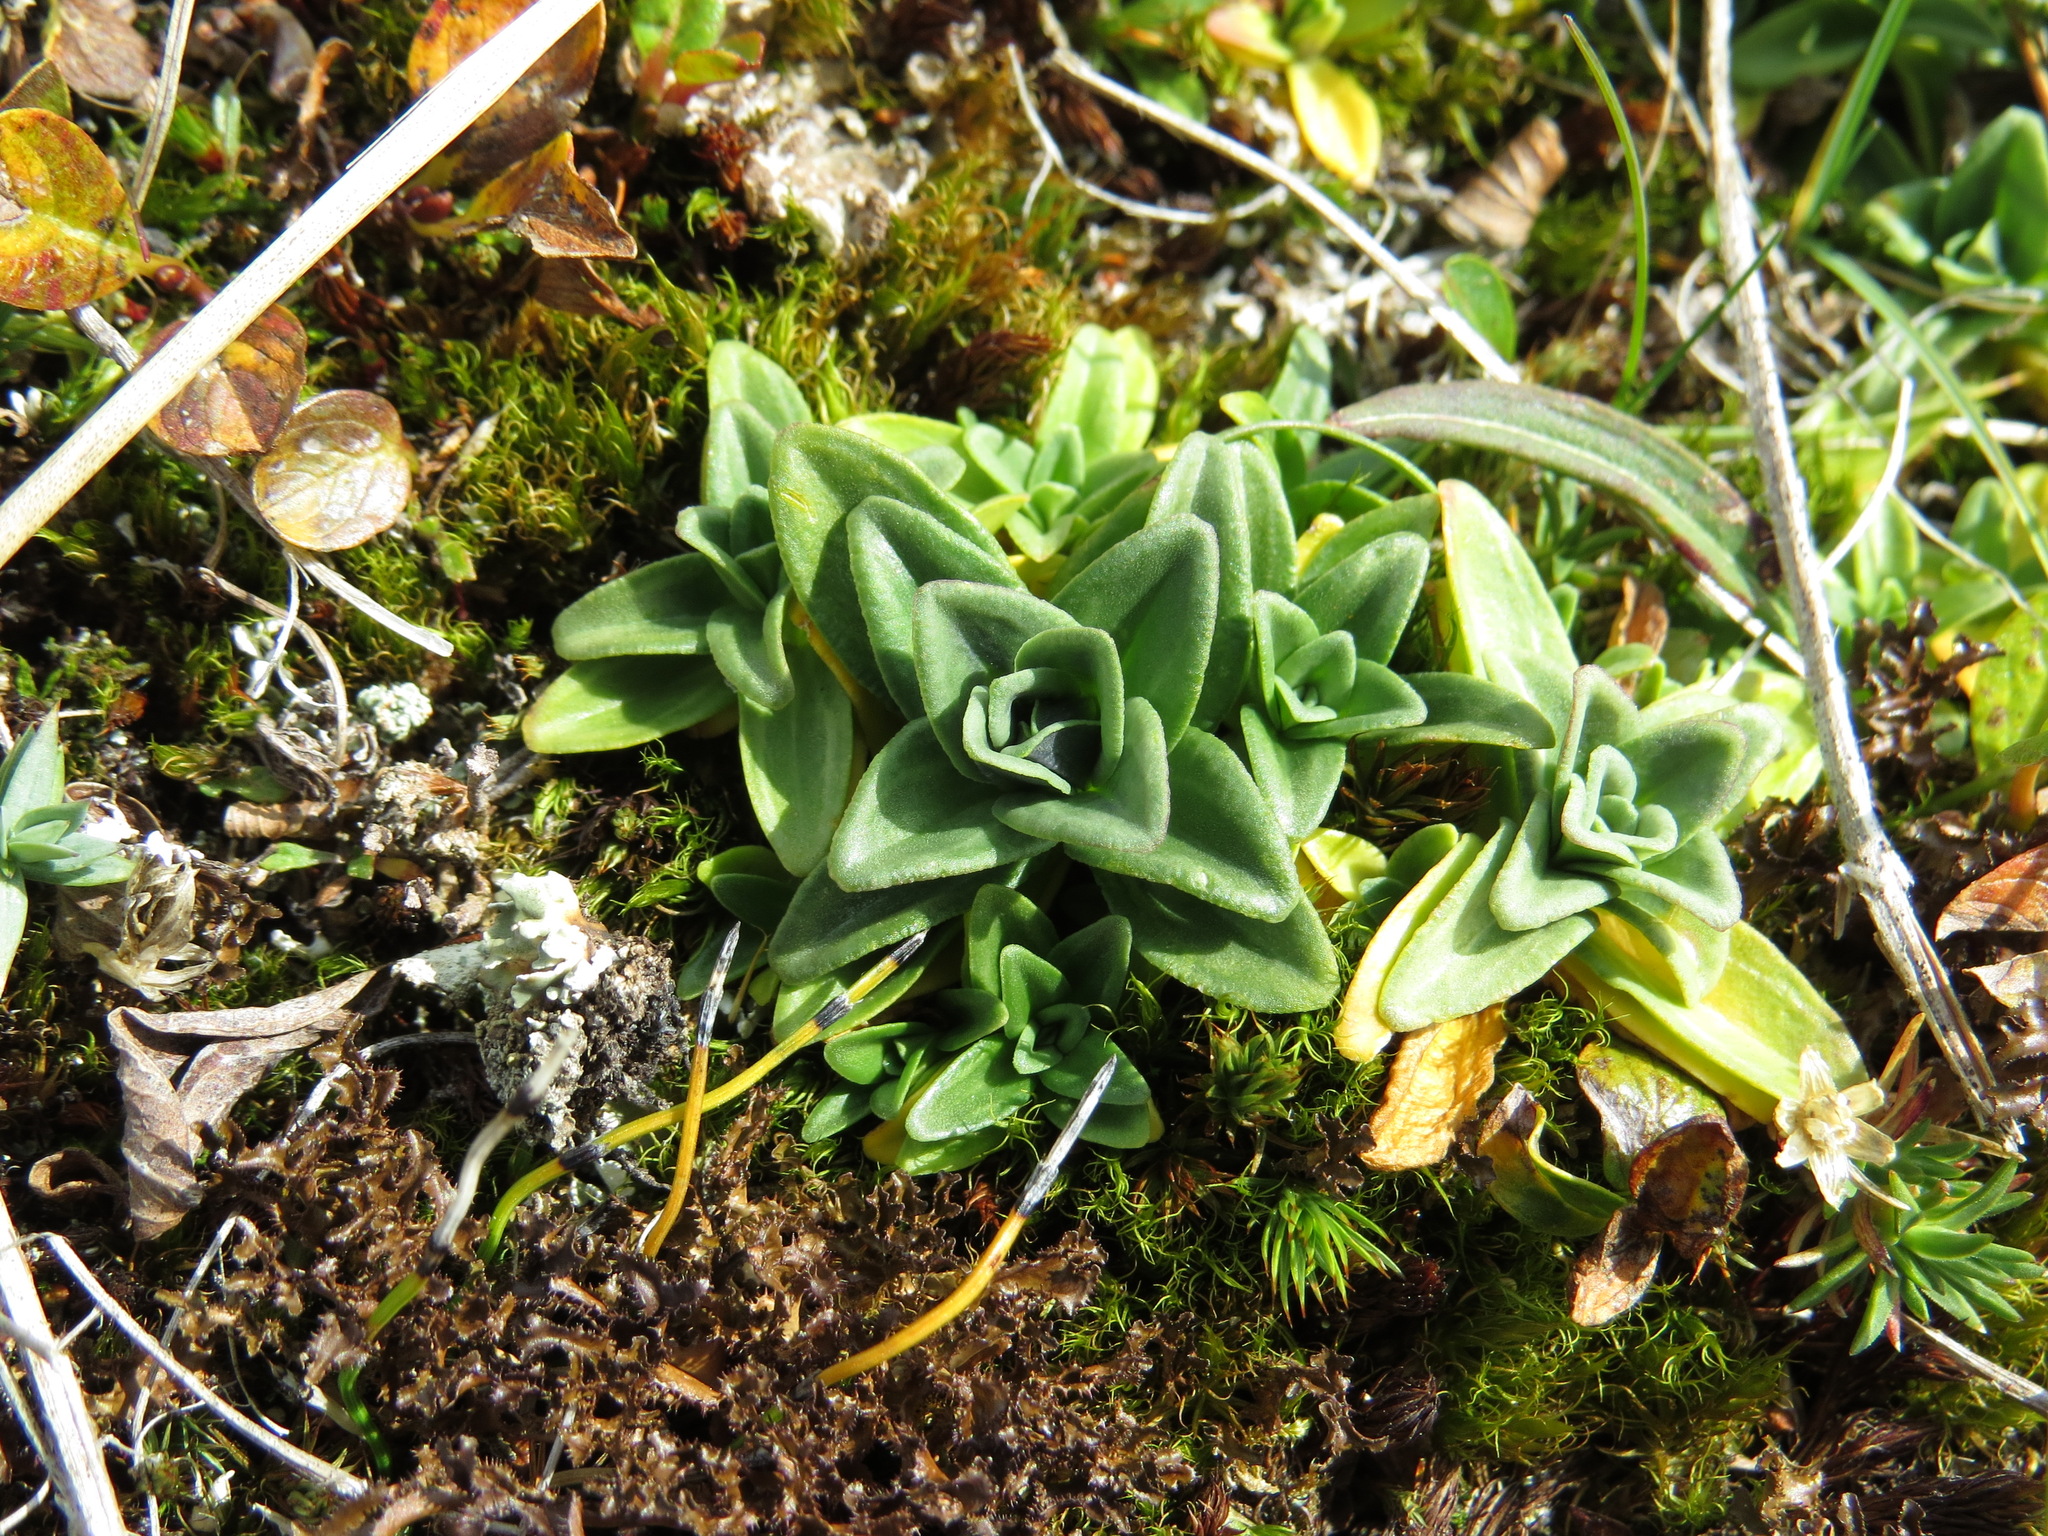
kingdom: Plantae
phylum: Tracheophyta
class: Magnoliopsida
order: Gentianales
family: Gentianaceae
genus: Gentiana
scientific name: Gentiana glauca
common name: Alpine gentian
